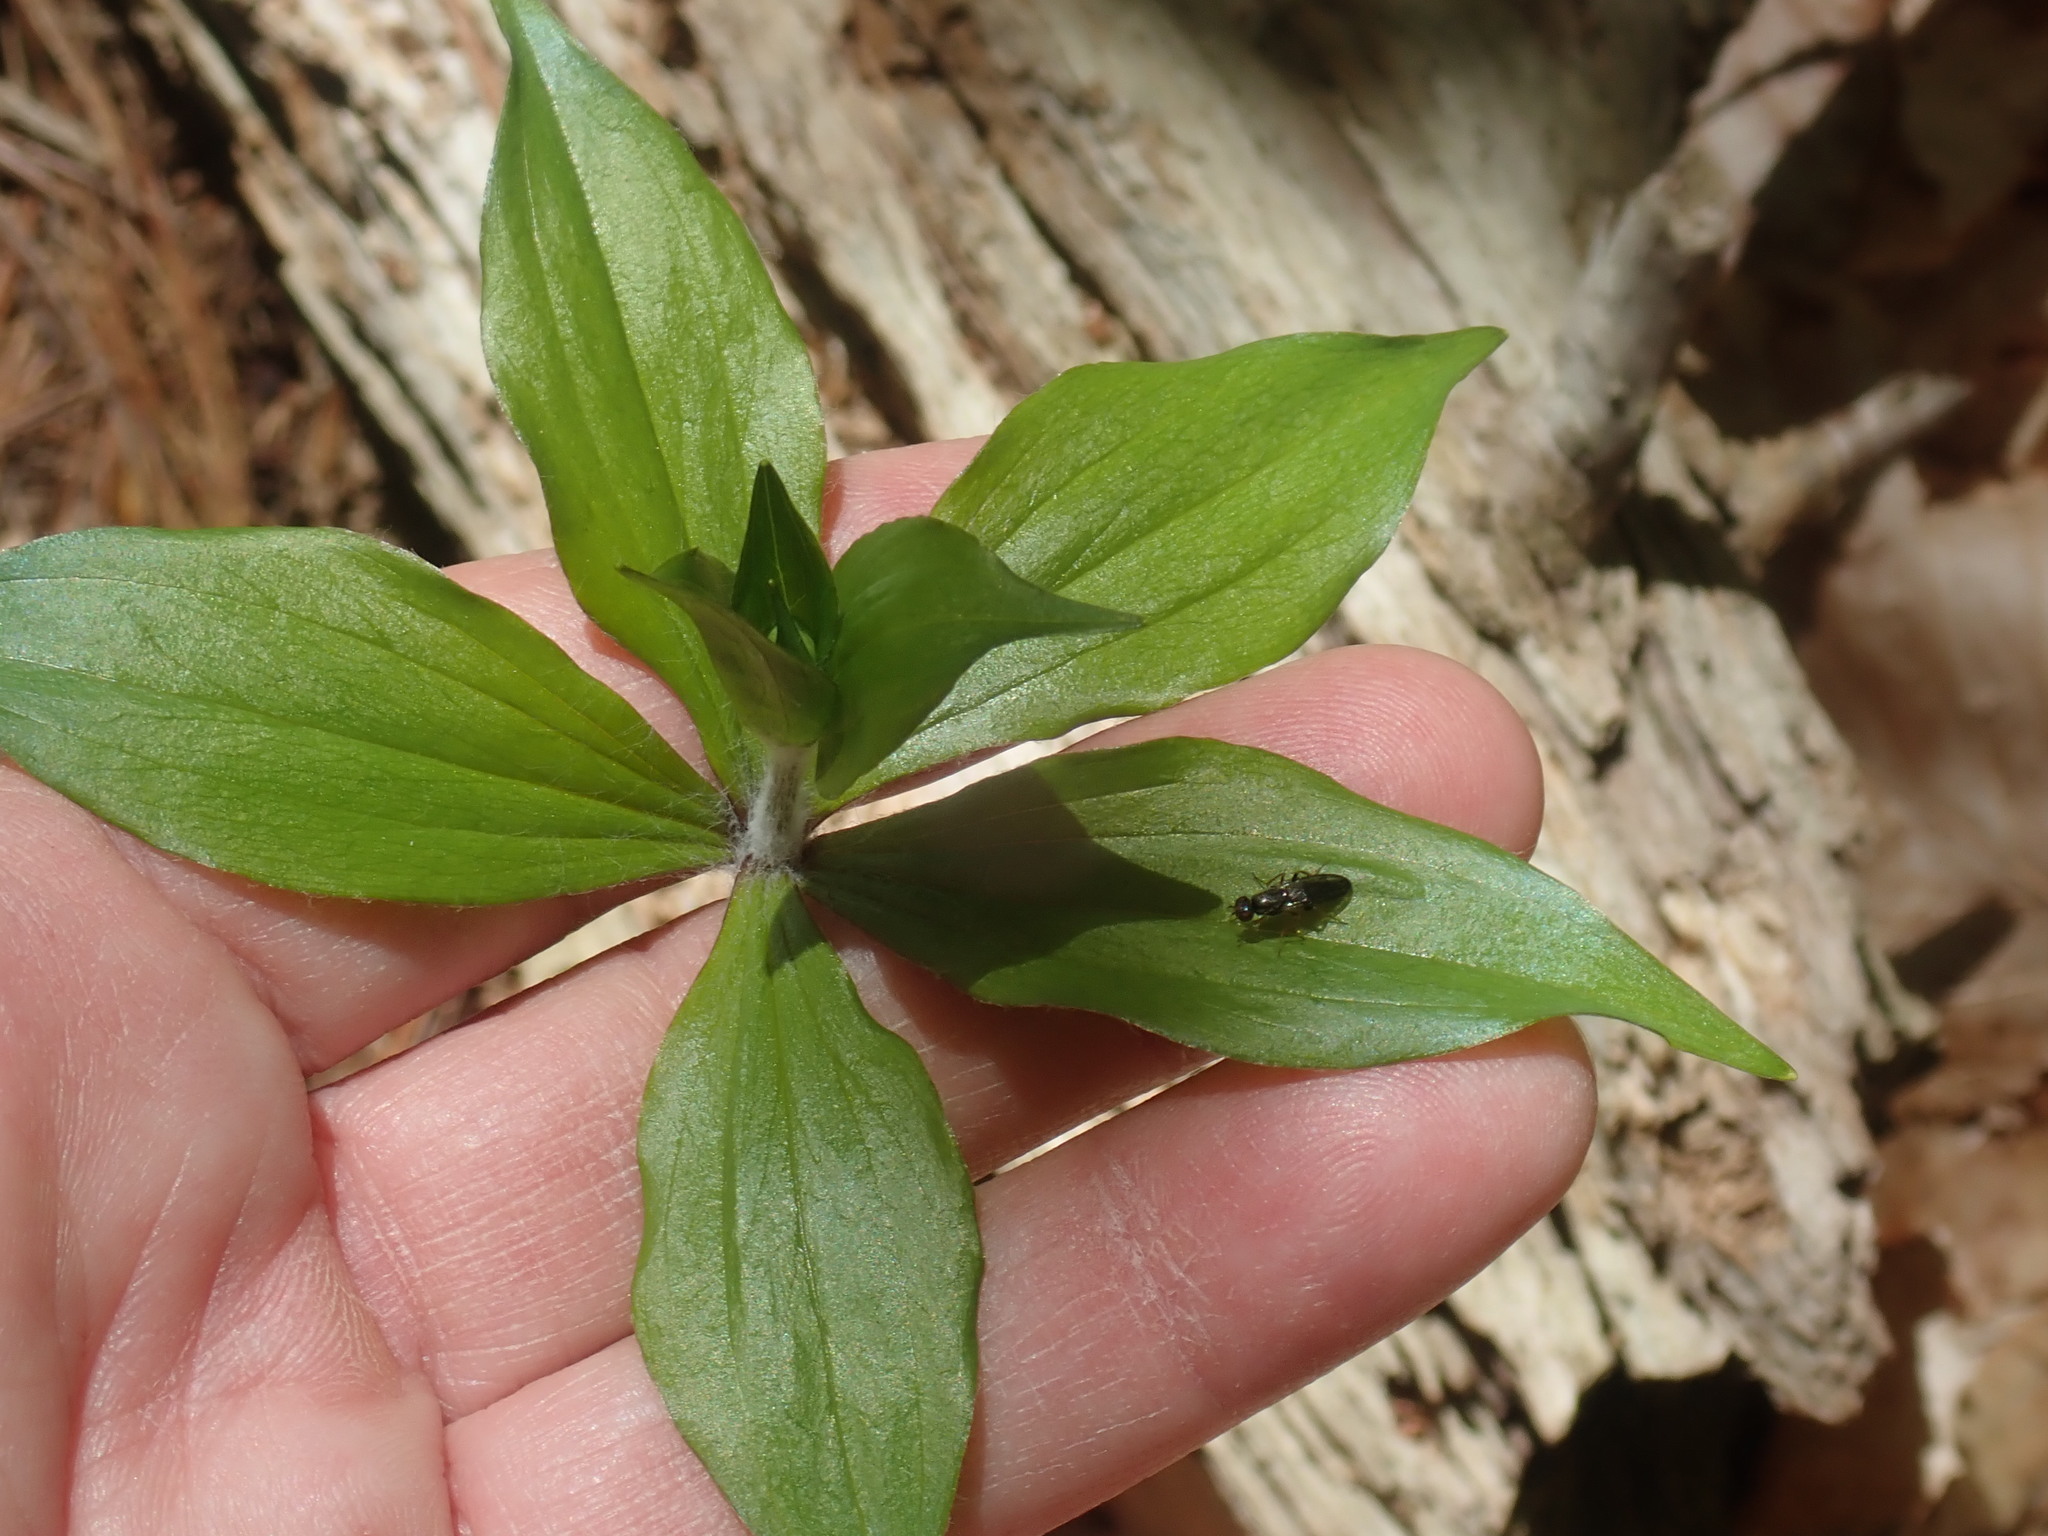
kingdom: Plantae
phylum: Tracheophyta
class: Liliopsida
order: Liliales
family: Liliaceae
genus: Medeola
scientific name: Medeola virginiana
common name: Indian cucumber-root
